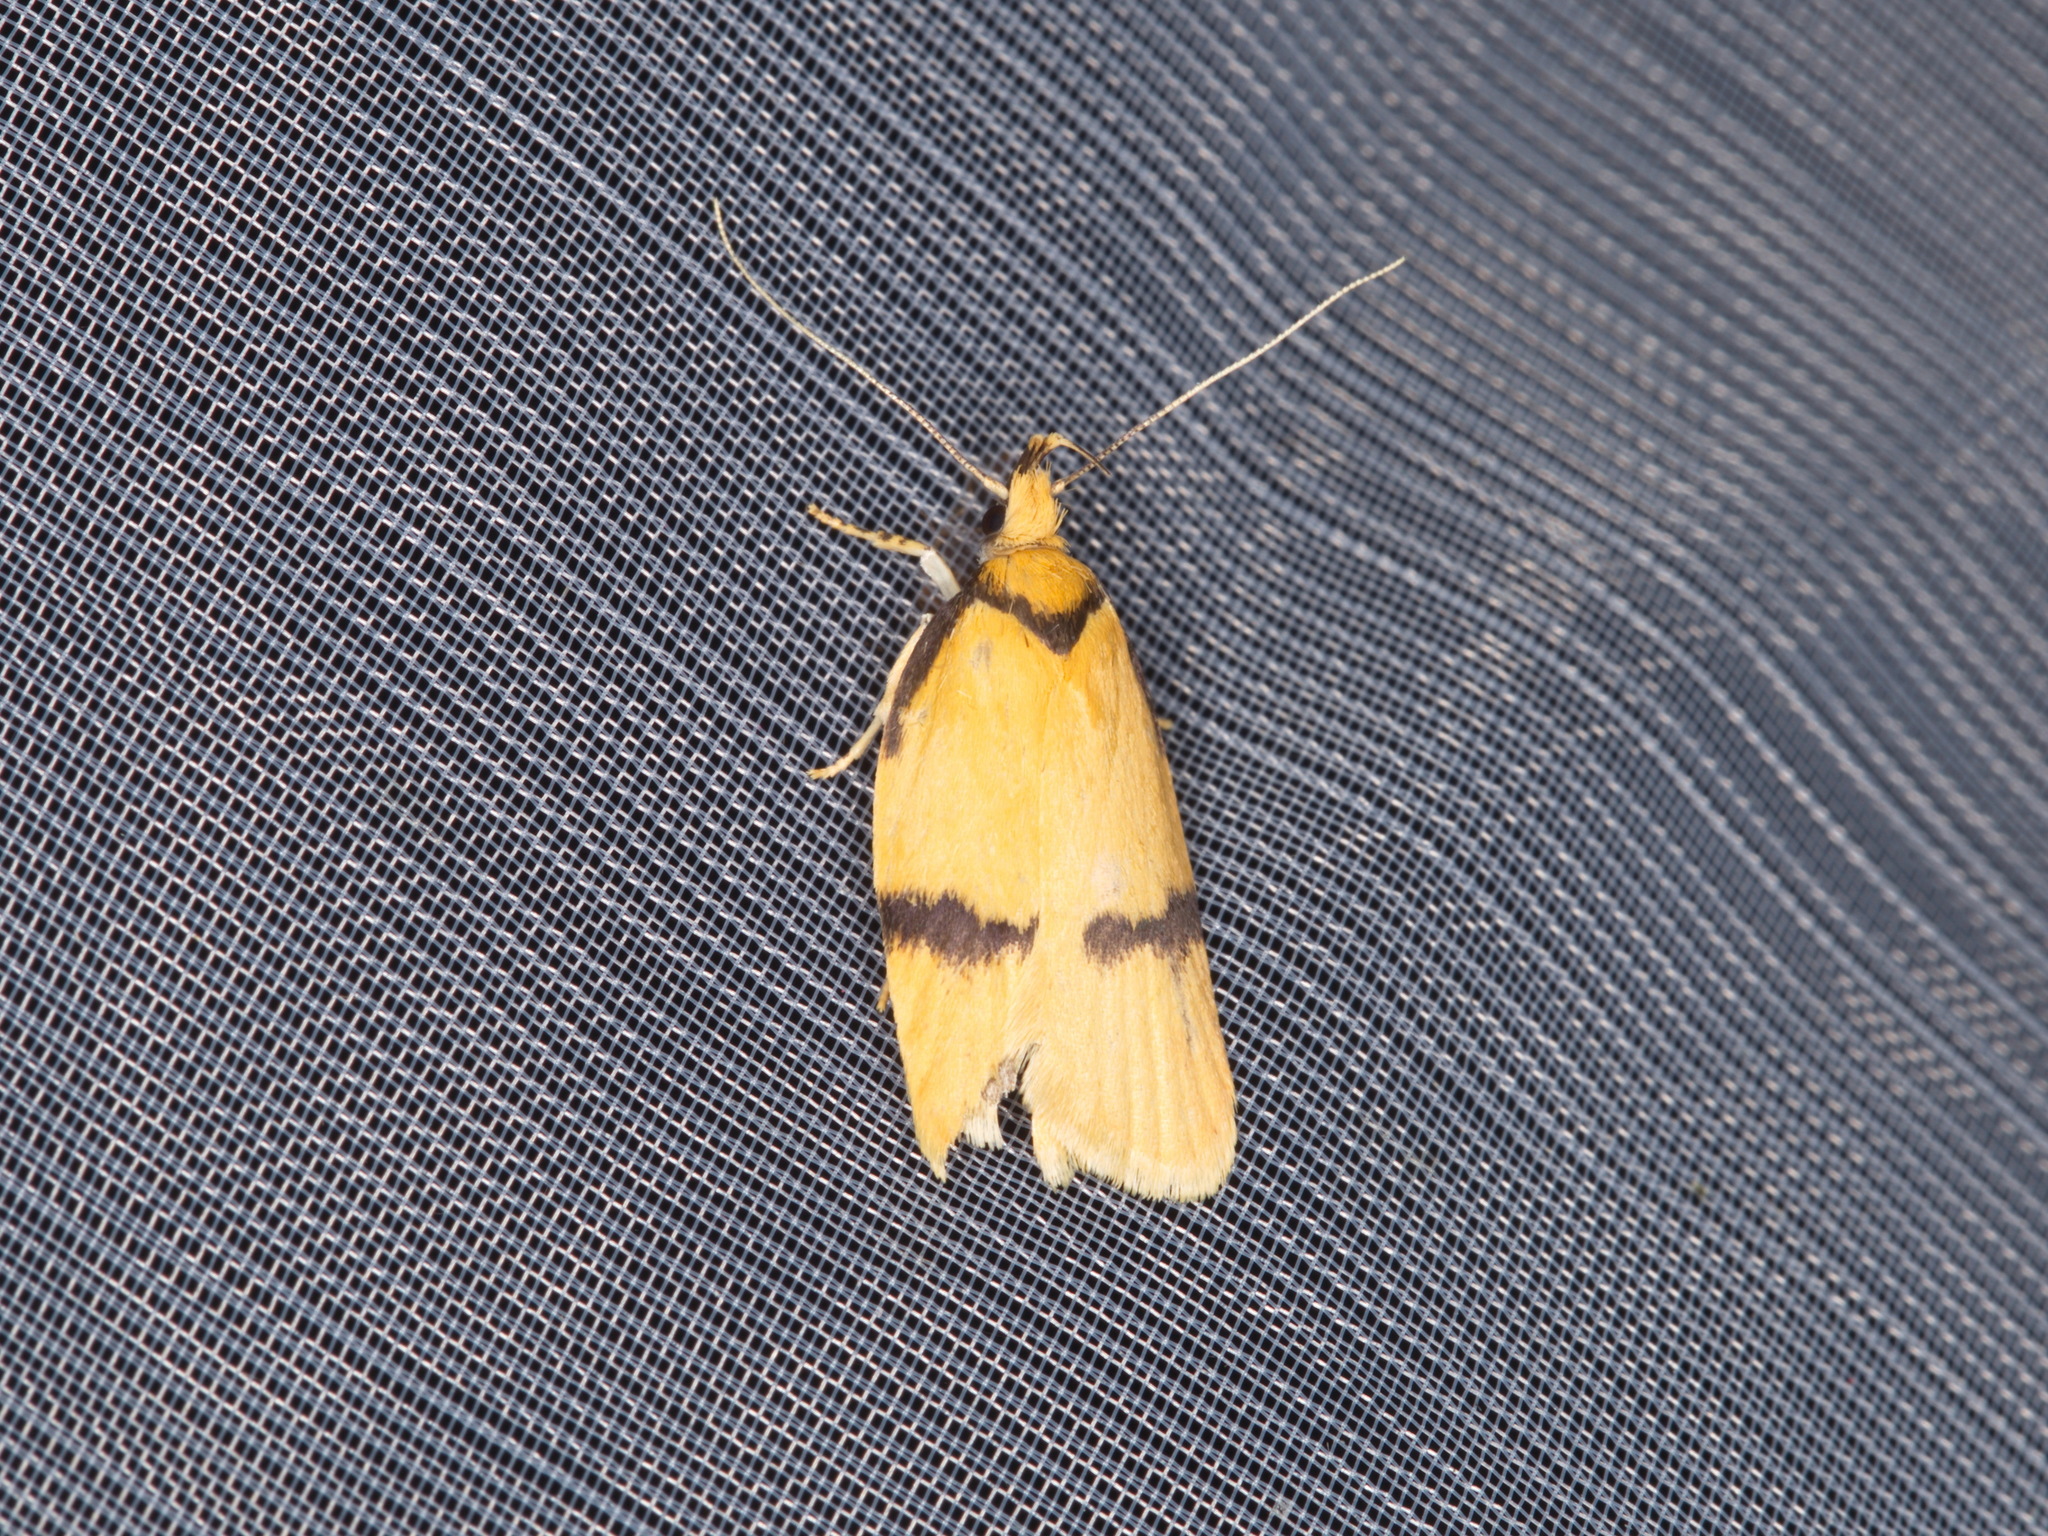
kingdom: Animalia
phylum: Arthropoda
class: Insecta
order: Lepidoptera
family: Depressariidae
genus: Pedois
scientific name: Pedois humerana
